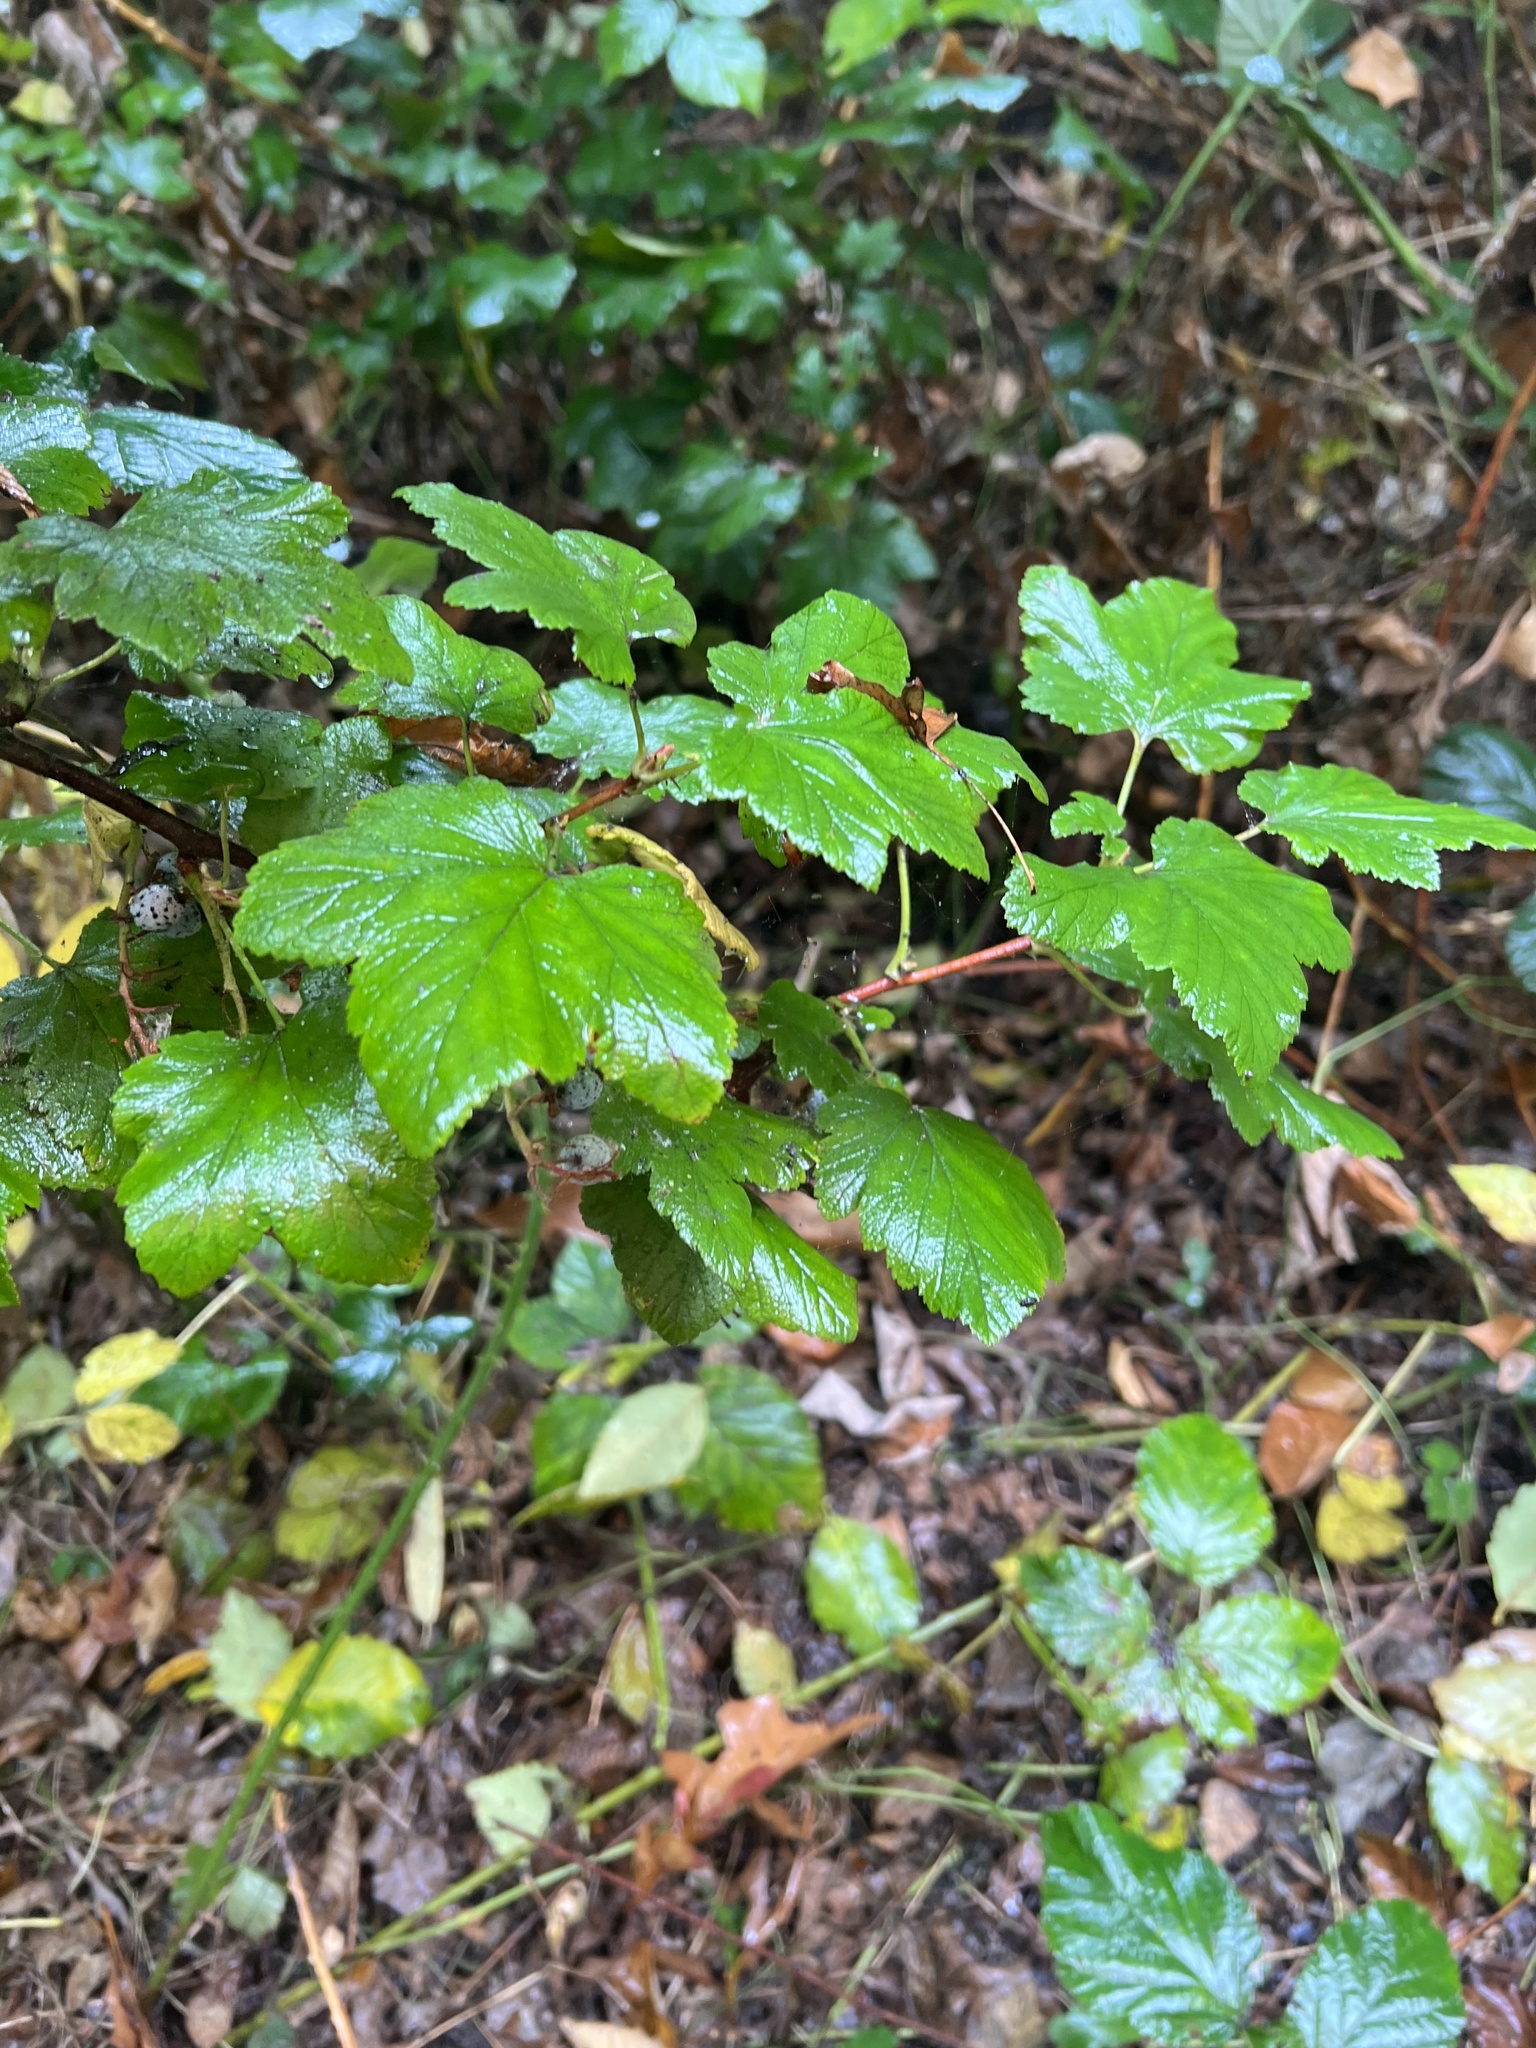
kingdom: Plantae
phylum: Tracheophyta
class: Magnoliopsida
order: Saxifragales
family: Grossulariaceae
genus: Ribes
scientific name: Ribes sanguineum
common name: Flowering currant
